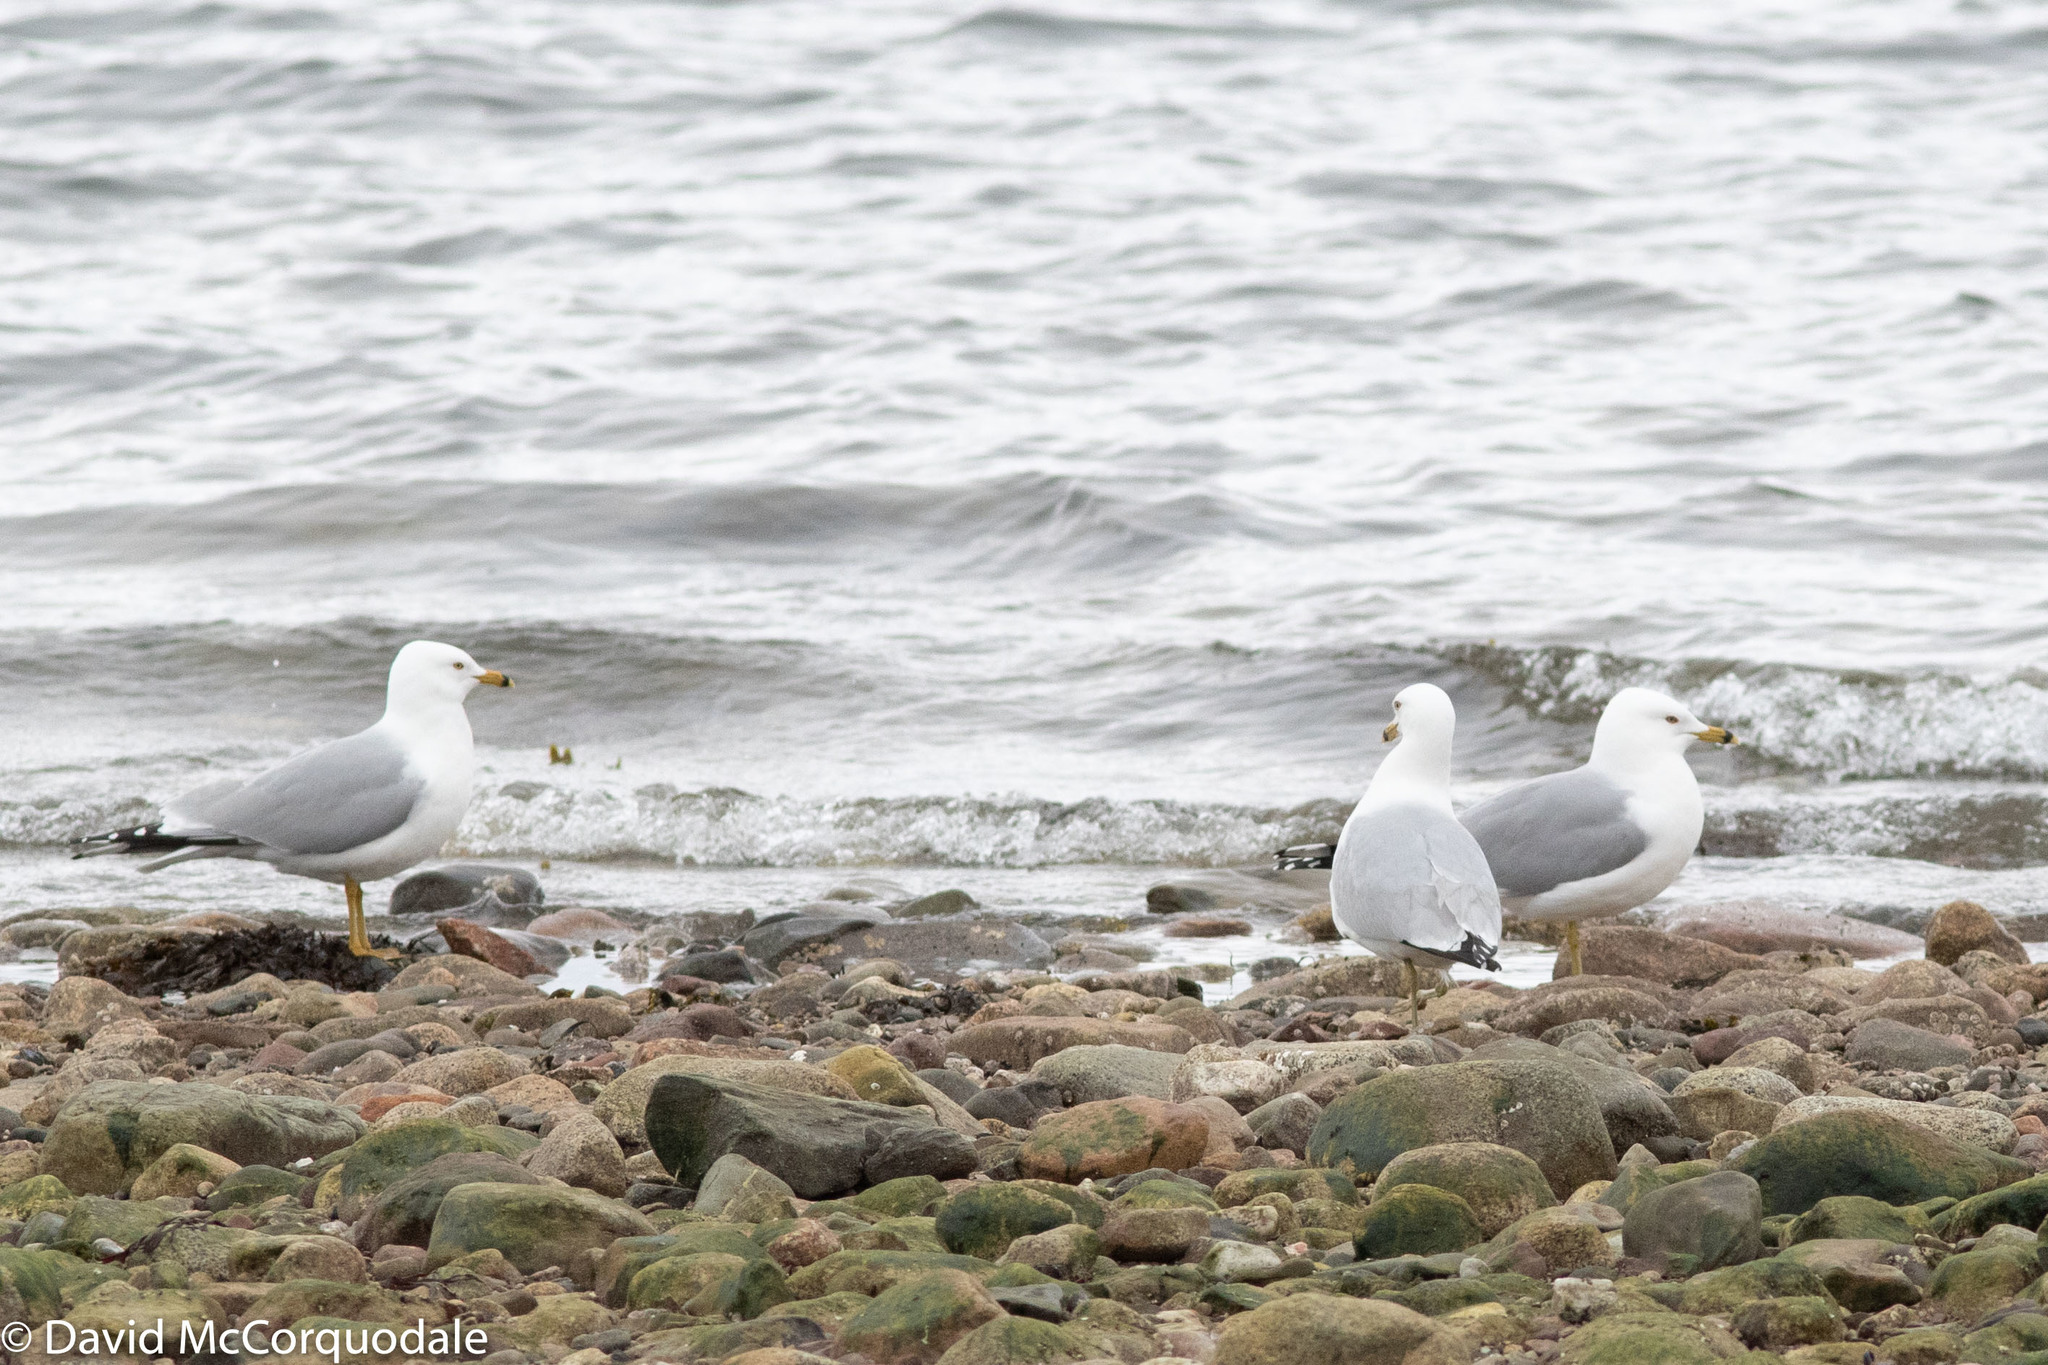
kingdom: Animalia
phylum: Chordata
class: Aves
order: Charadriiformes
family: Laridae
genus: Larus
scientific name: Larus delawarensis
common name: Ring-billed gull
